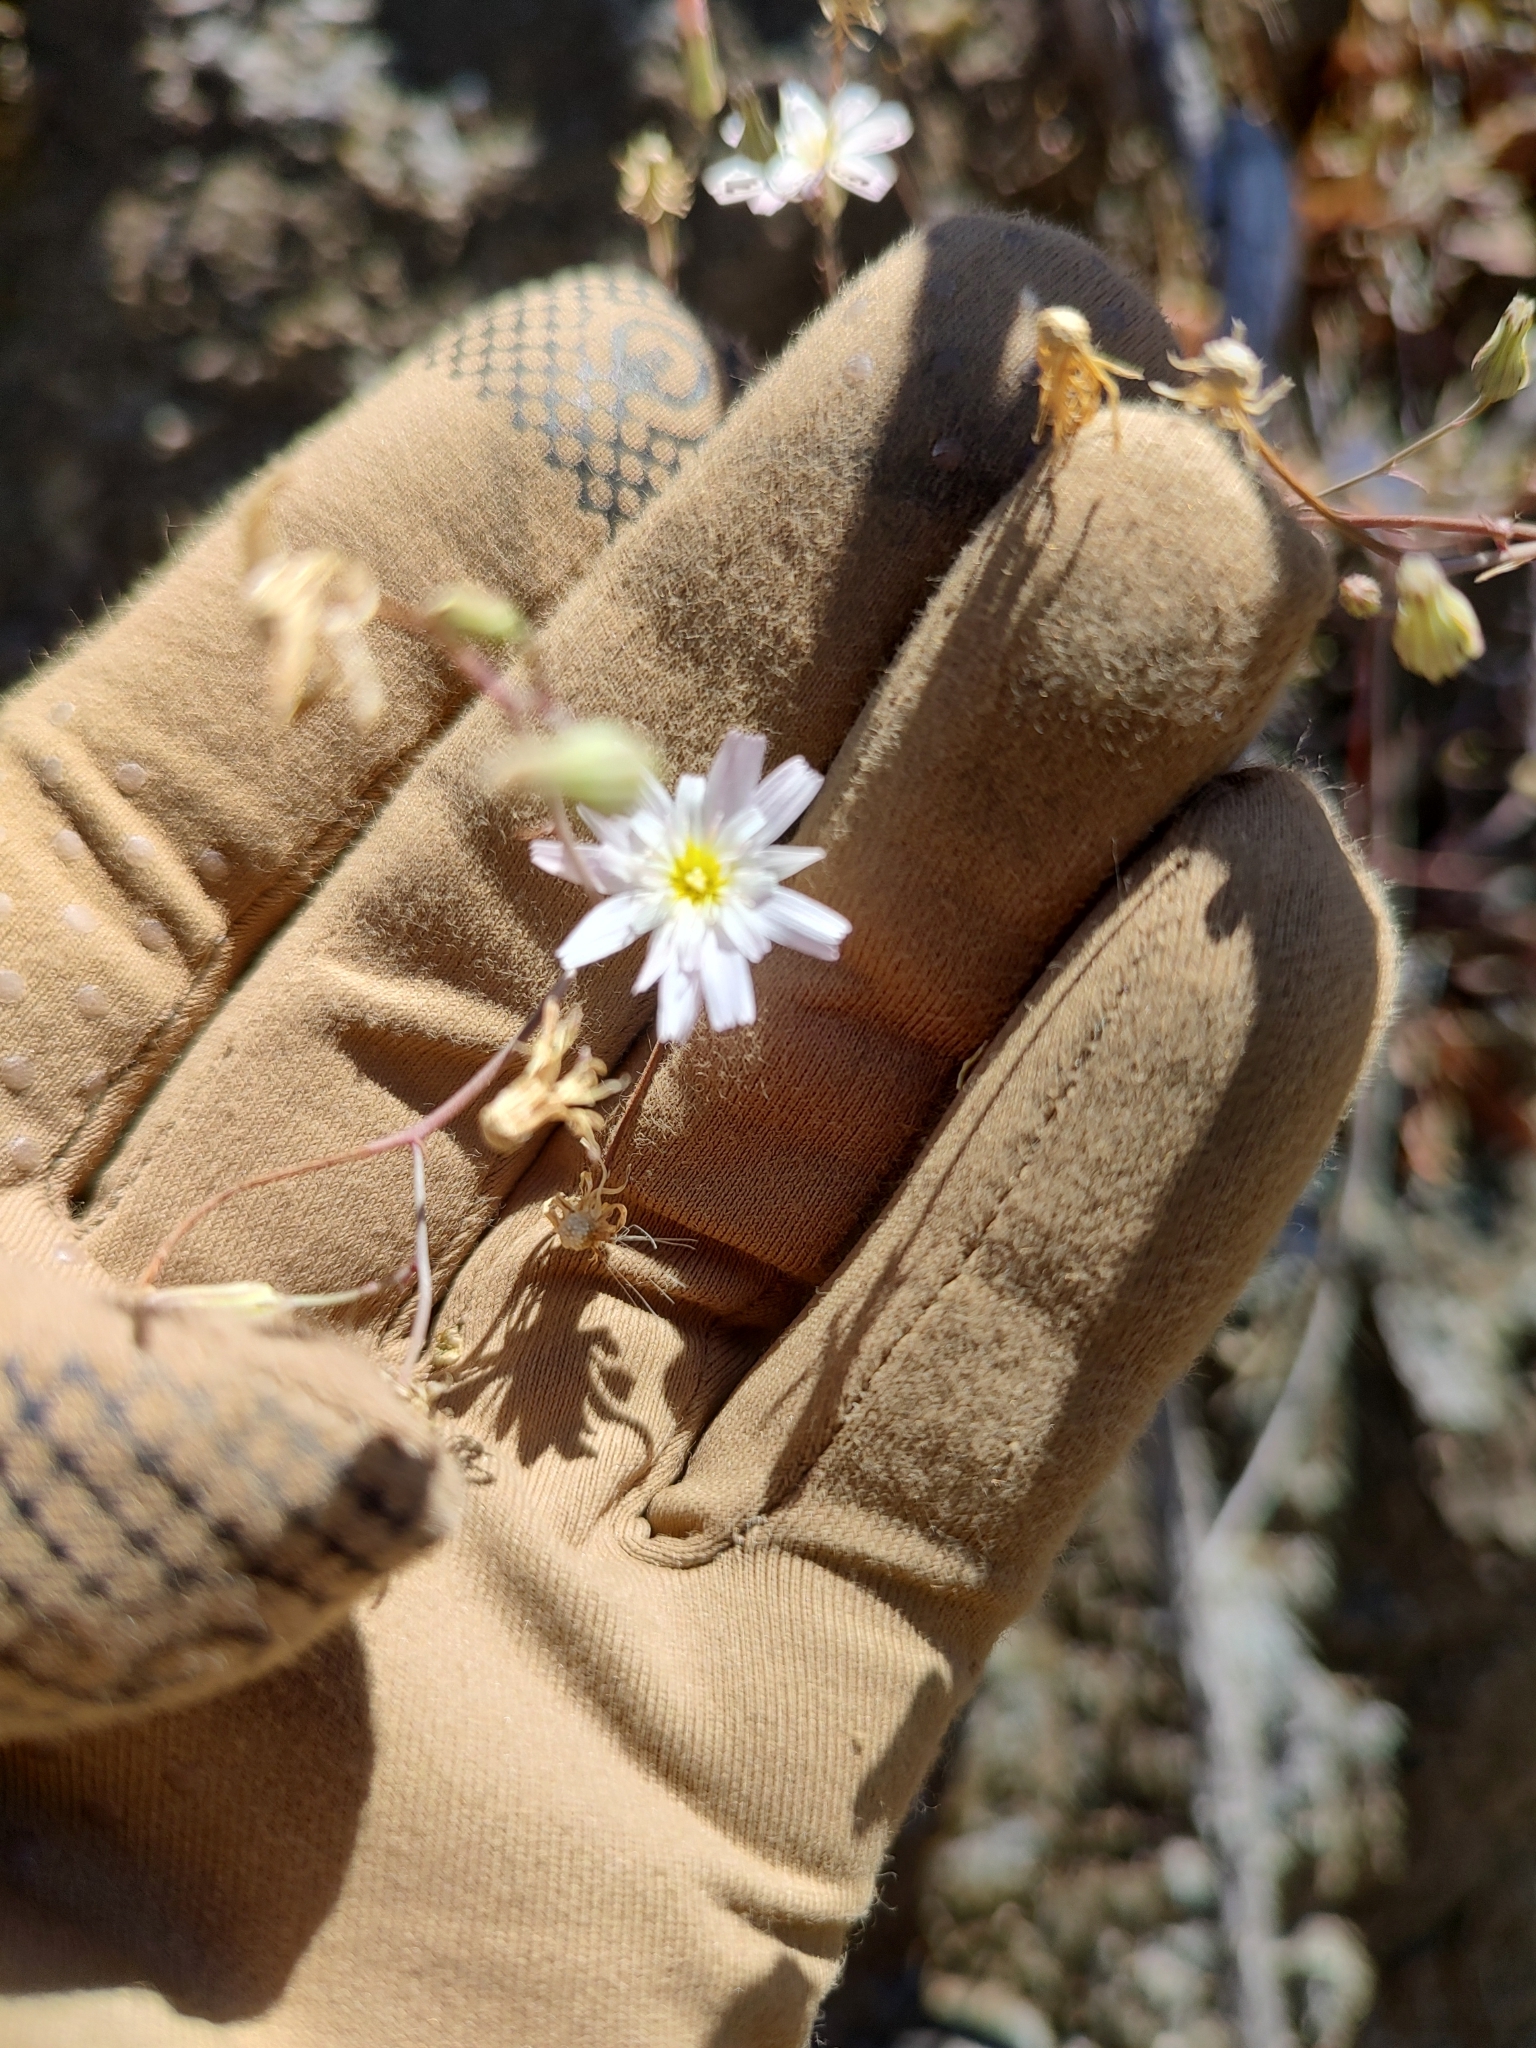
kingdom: Plantae
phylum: Tracheophyta
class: Magnoliopsida
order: Asterales
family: Asteraceae
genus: Malacothrix
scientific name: Malacothrix xanti
